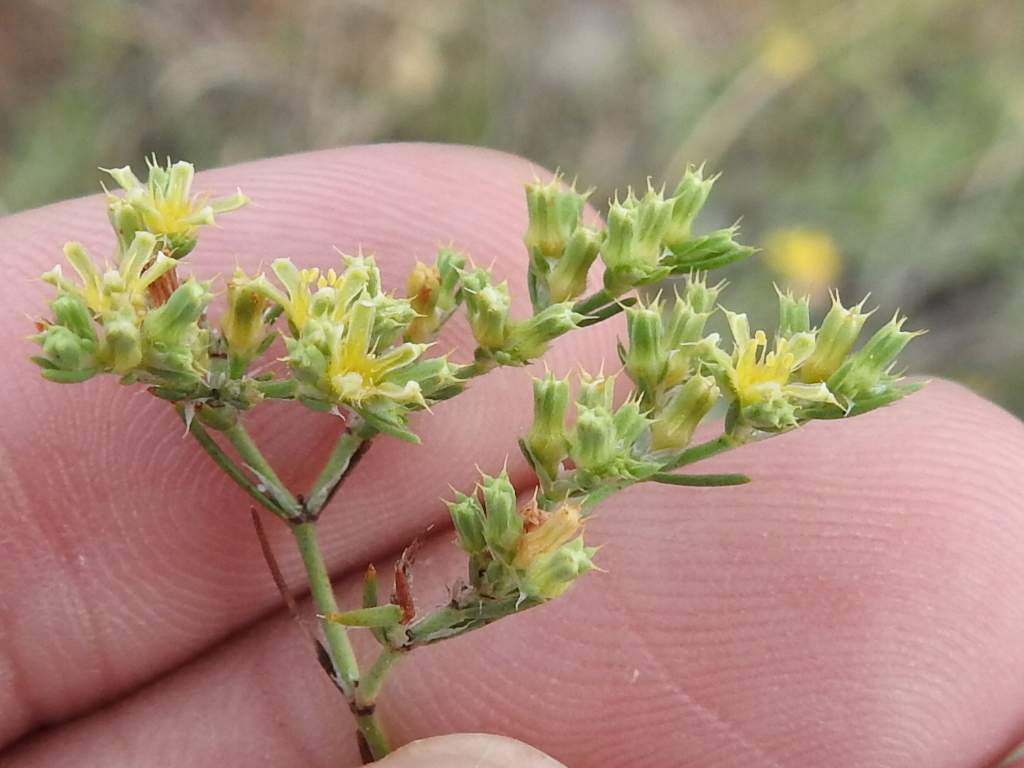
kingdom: Plantae
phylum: Tracheophyta
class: Magnoliopsida
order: Caryophyllales
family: Caryophyllaceae
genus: Paronychia
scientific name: Paronychia jamesii
